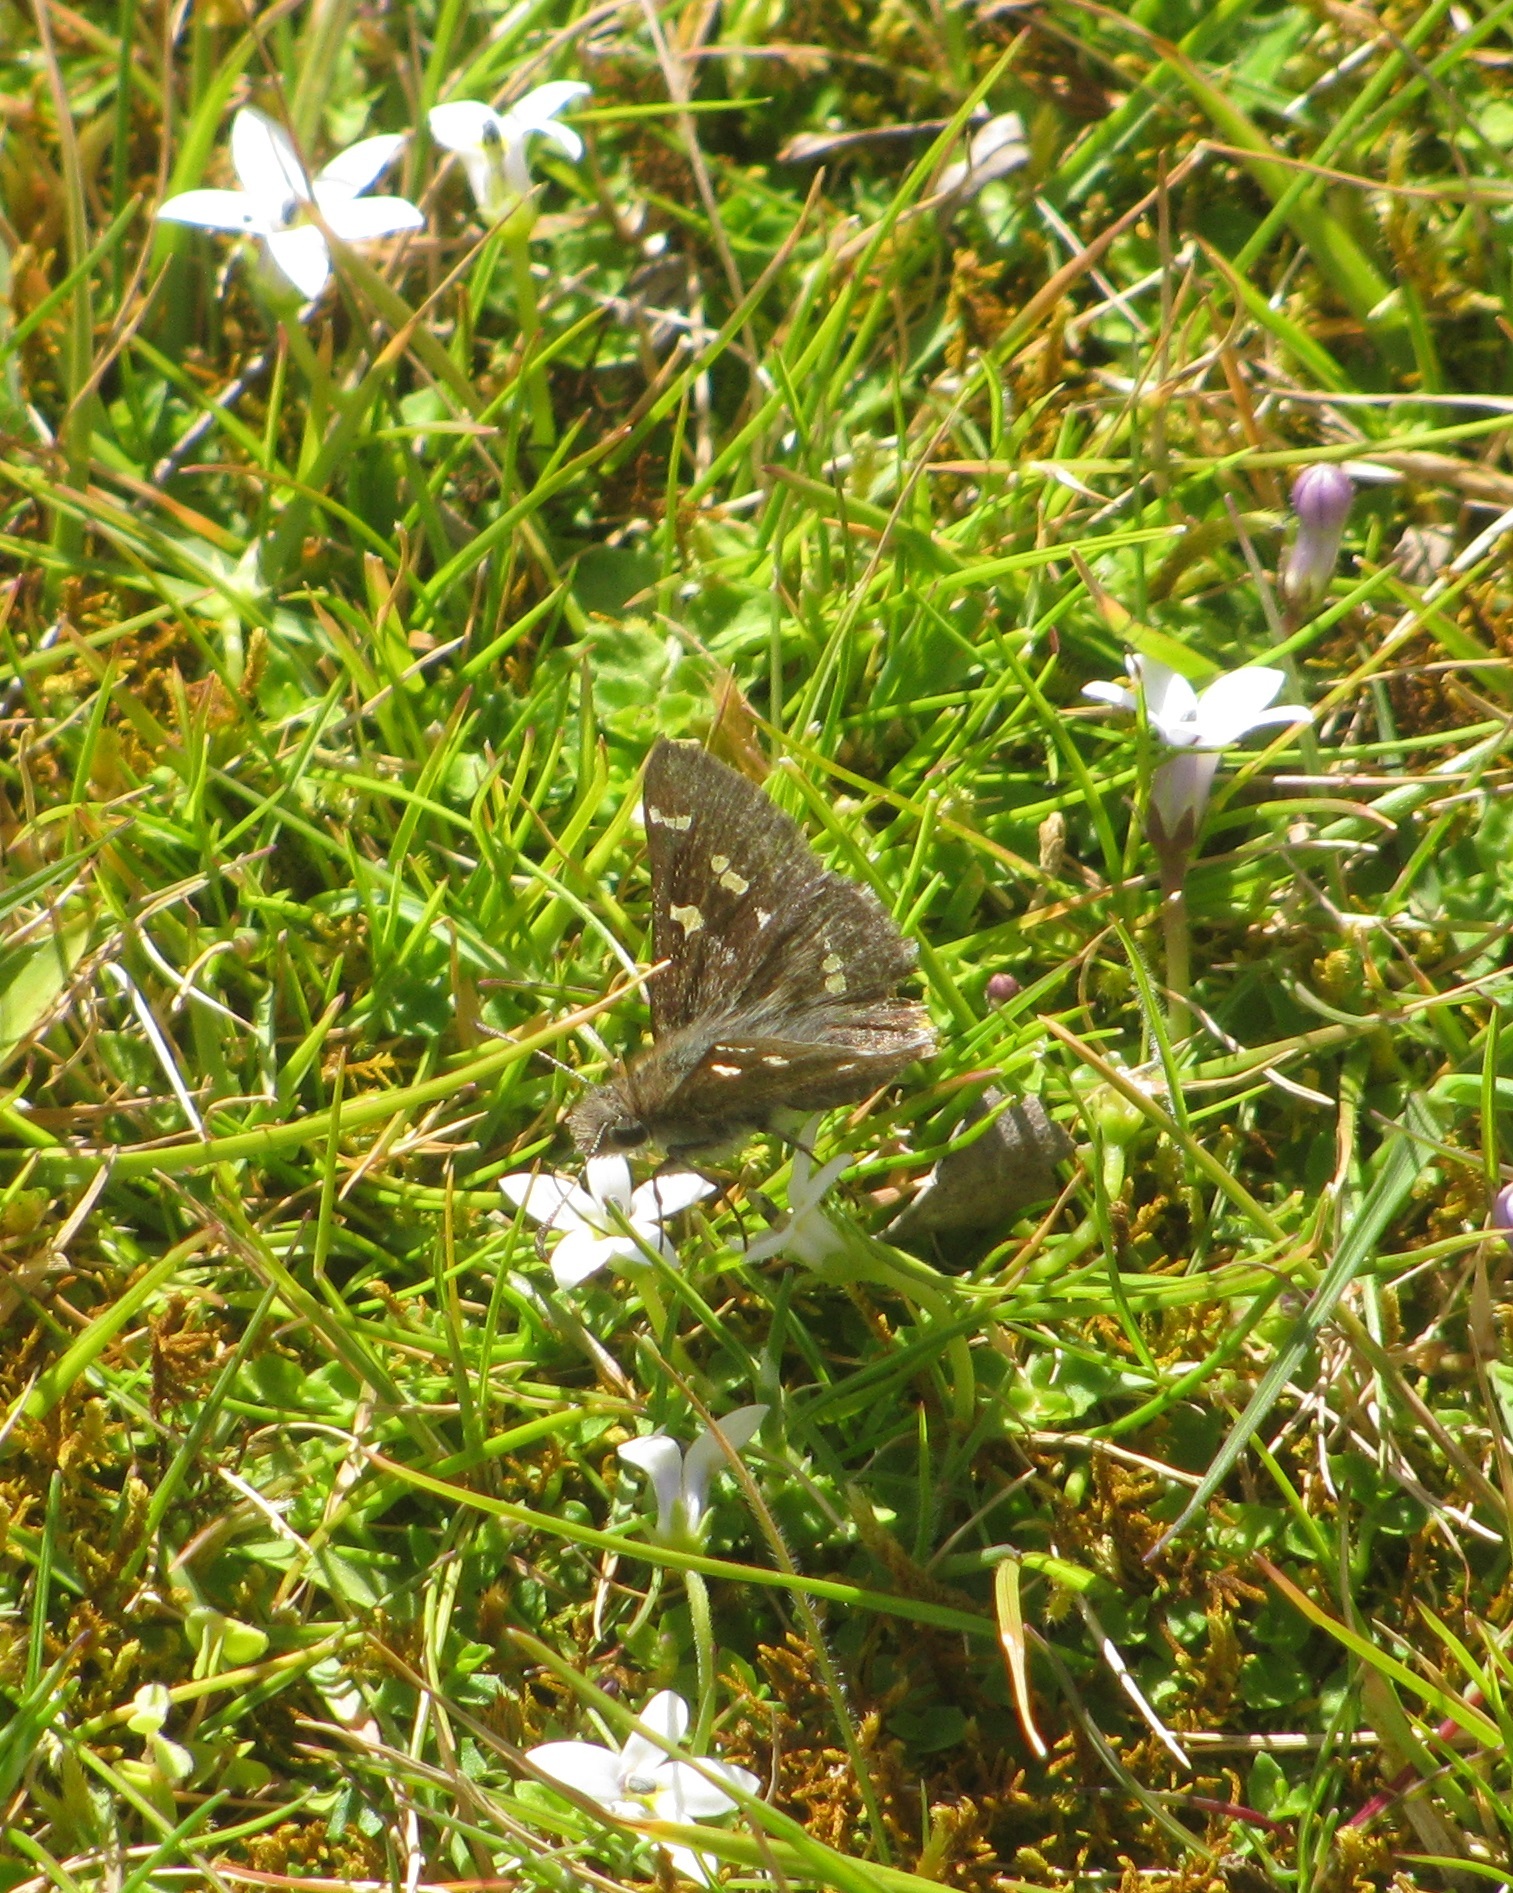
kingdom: Animalia
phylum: Arthropoda
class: Insecta
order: Lepidoptera
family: Hesperiidae
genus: Pasma
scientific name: Pasma tasmanicus
